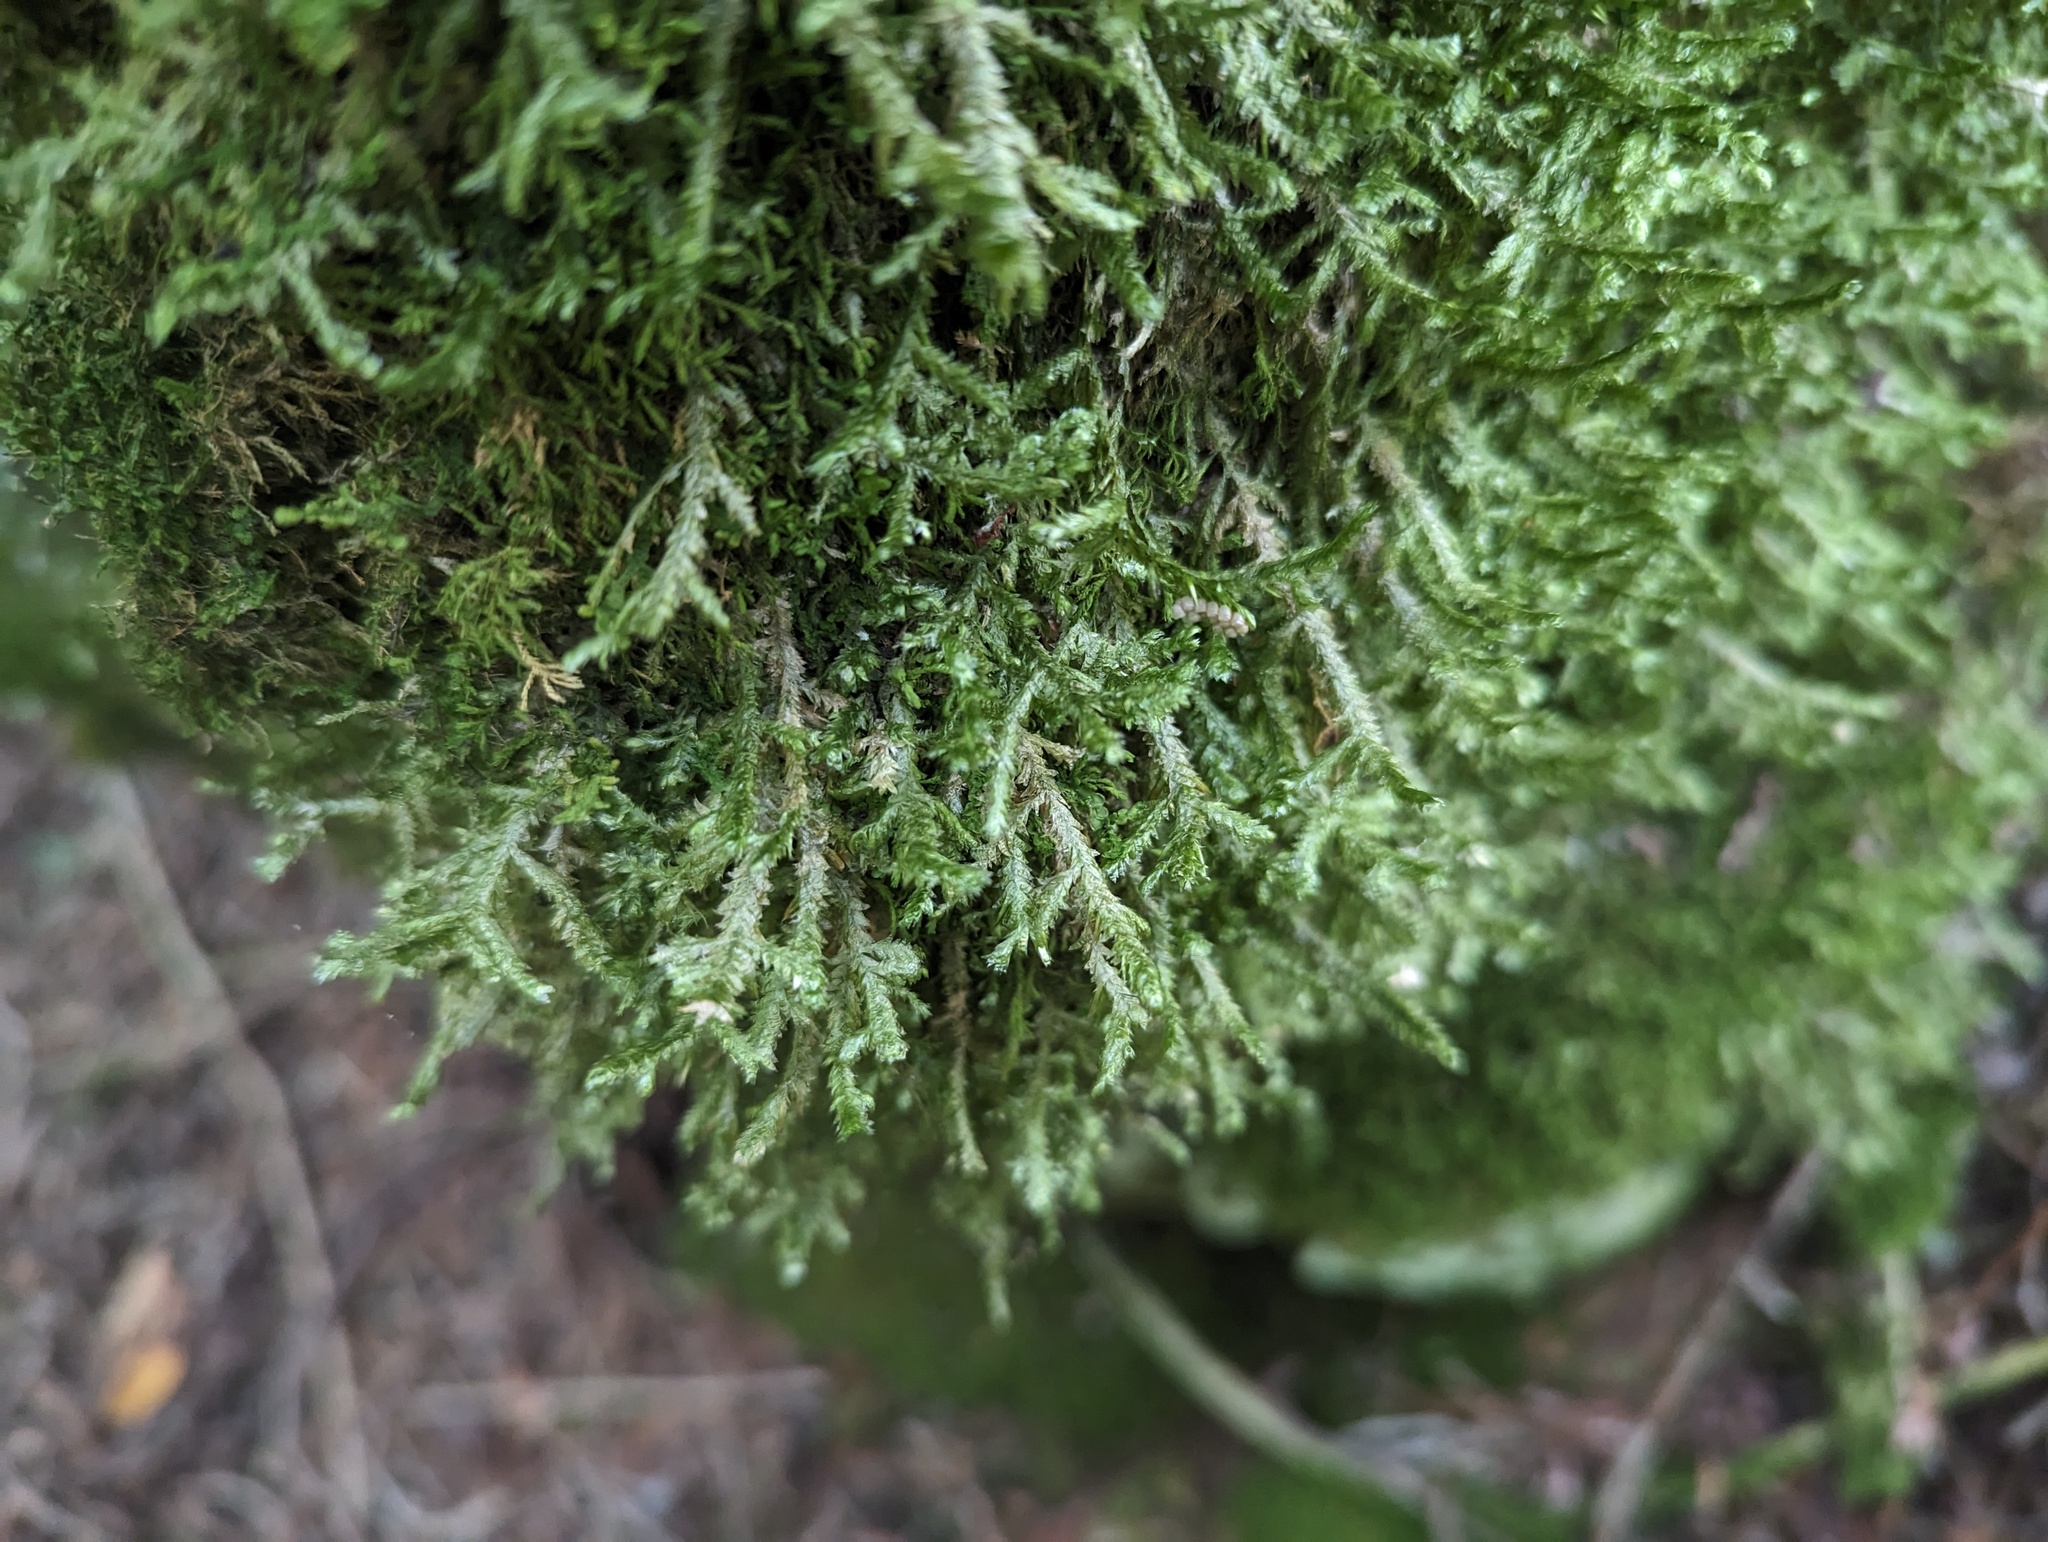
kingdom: Plantae
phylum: Bryophyta
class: Bryopsida
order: Hypnales
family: Neckeraceae
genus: Neckera
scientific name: Neckera pennata
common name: Feathery neckera
